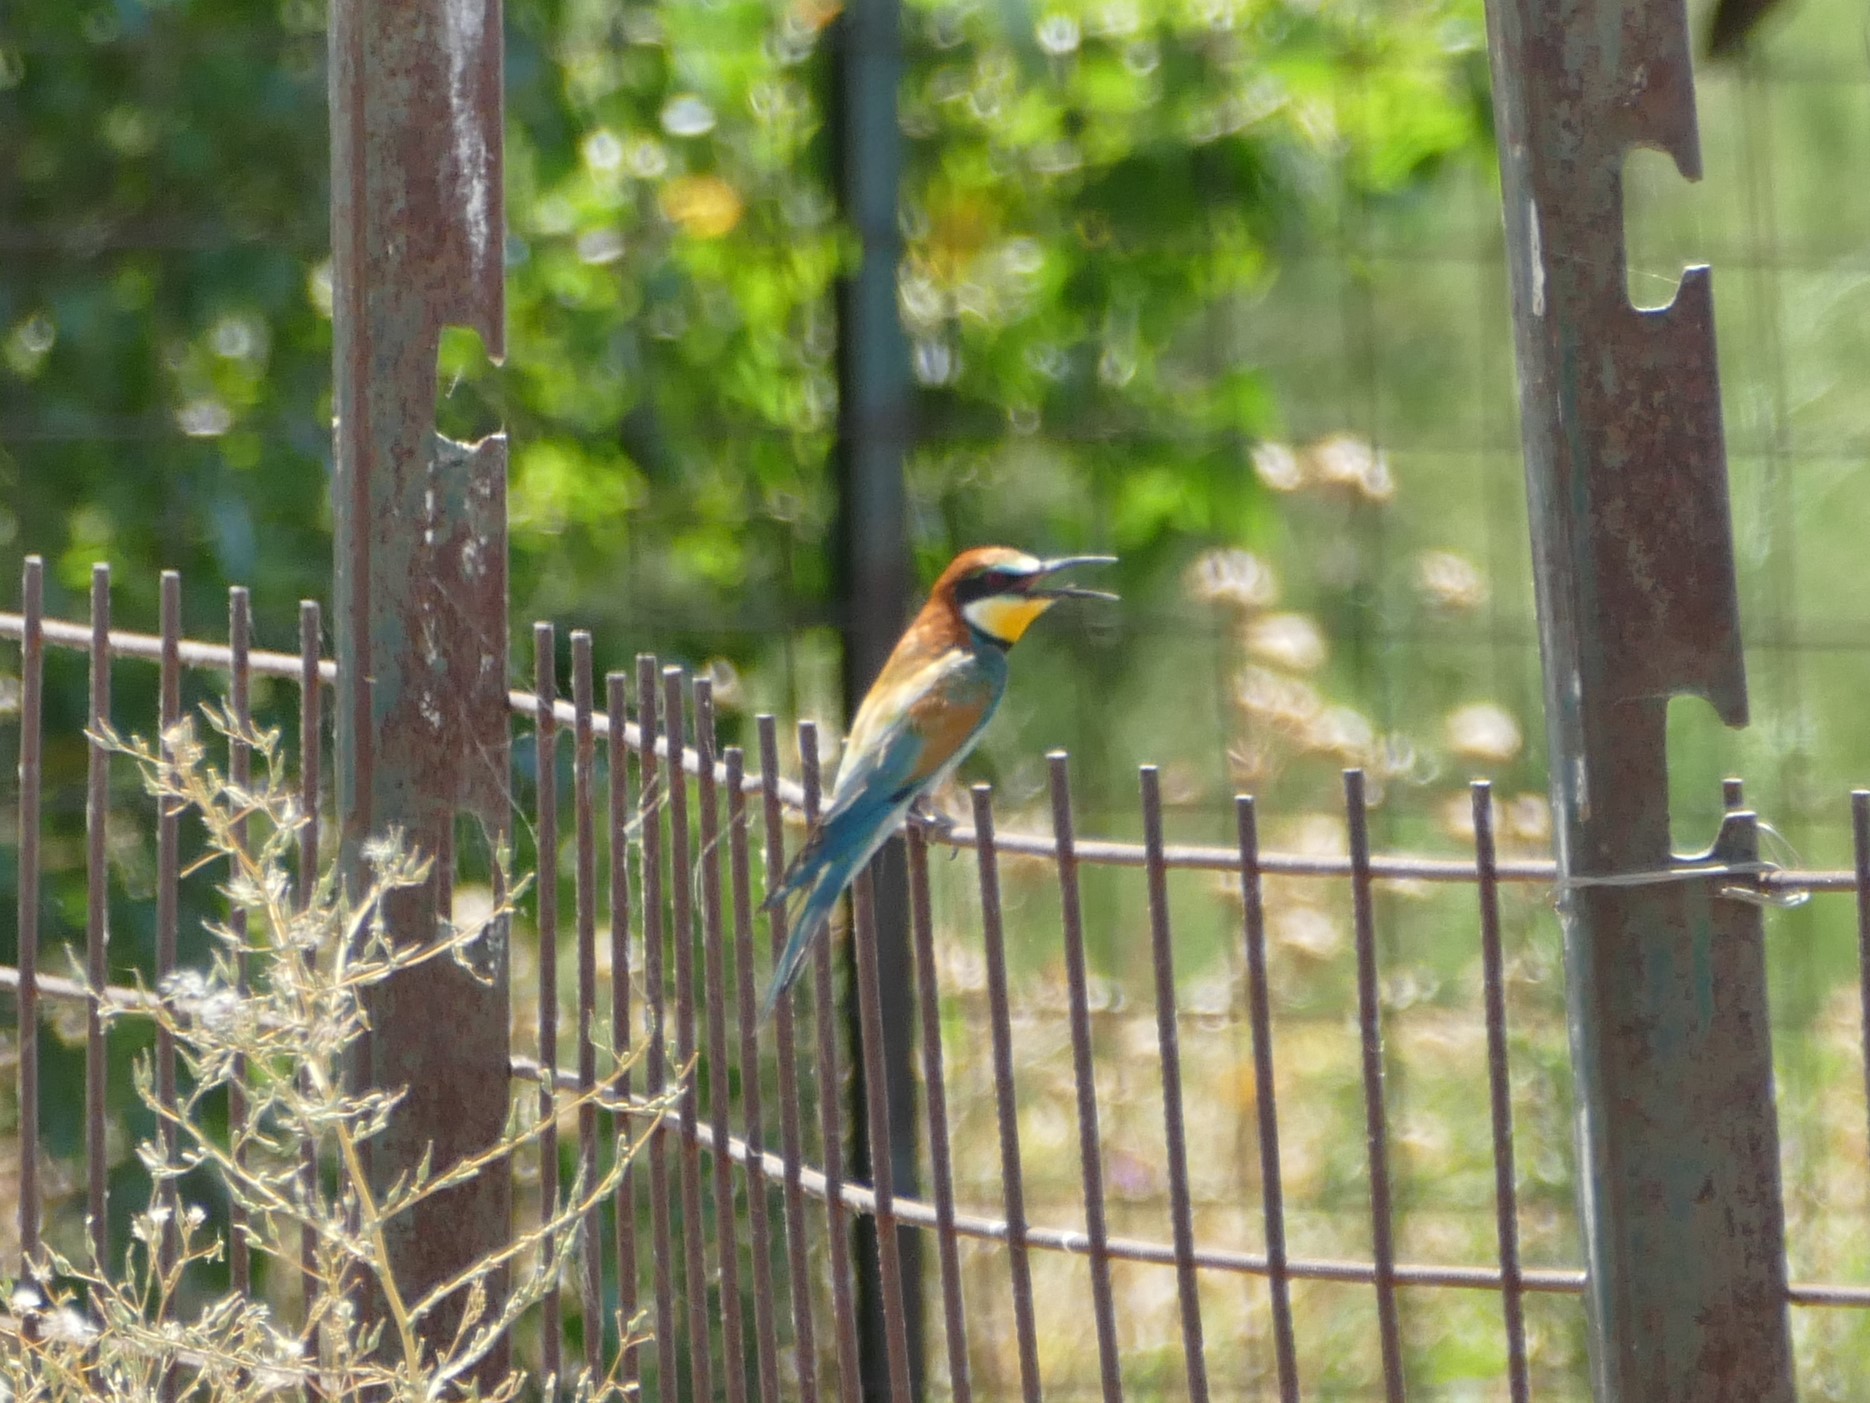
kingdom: Animalia
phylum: Chordata
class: Aves
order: Coraciiformes
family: Meropidae
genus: Merops
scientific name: Merops apiaster
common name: European bee-eater
